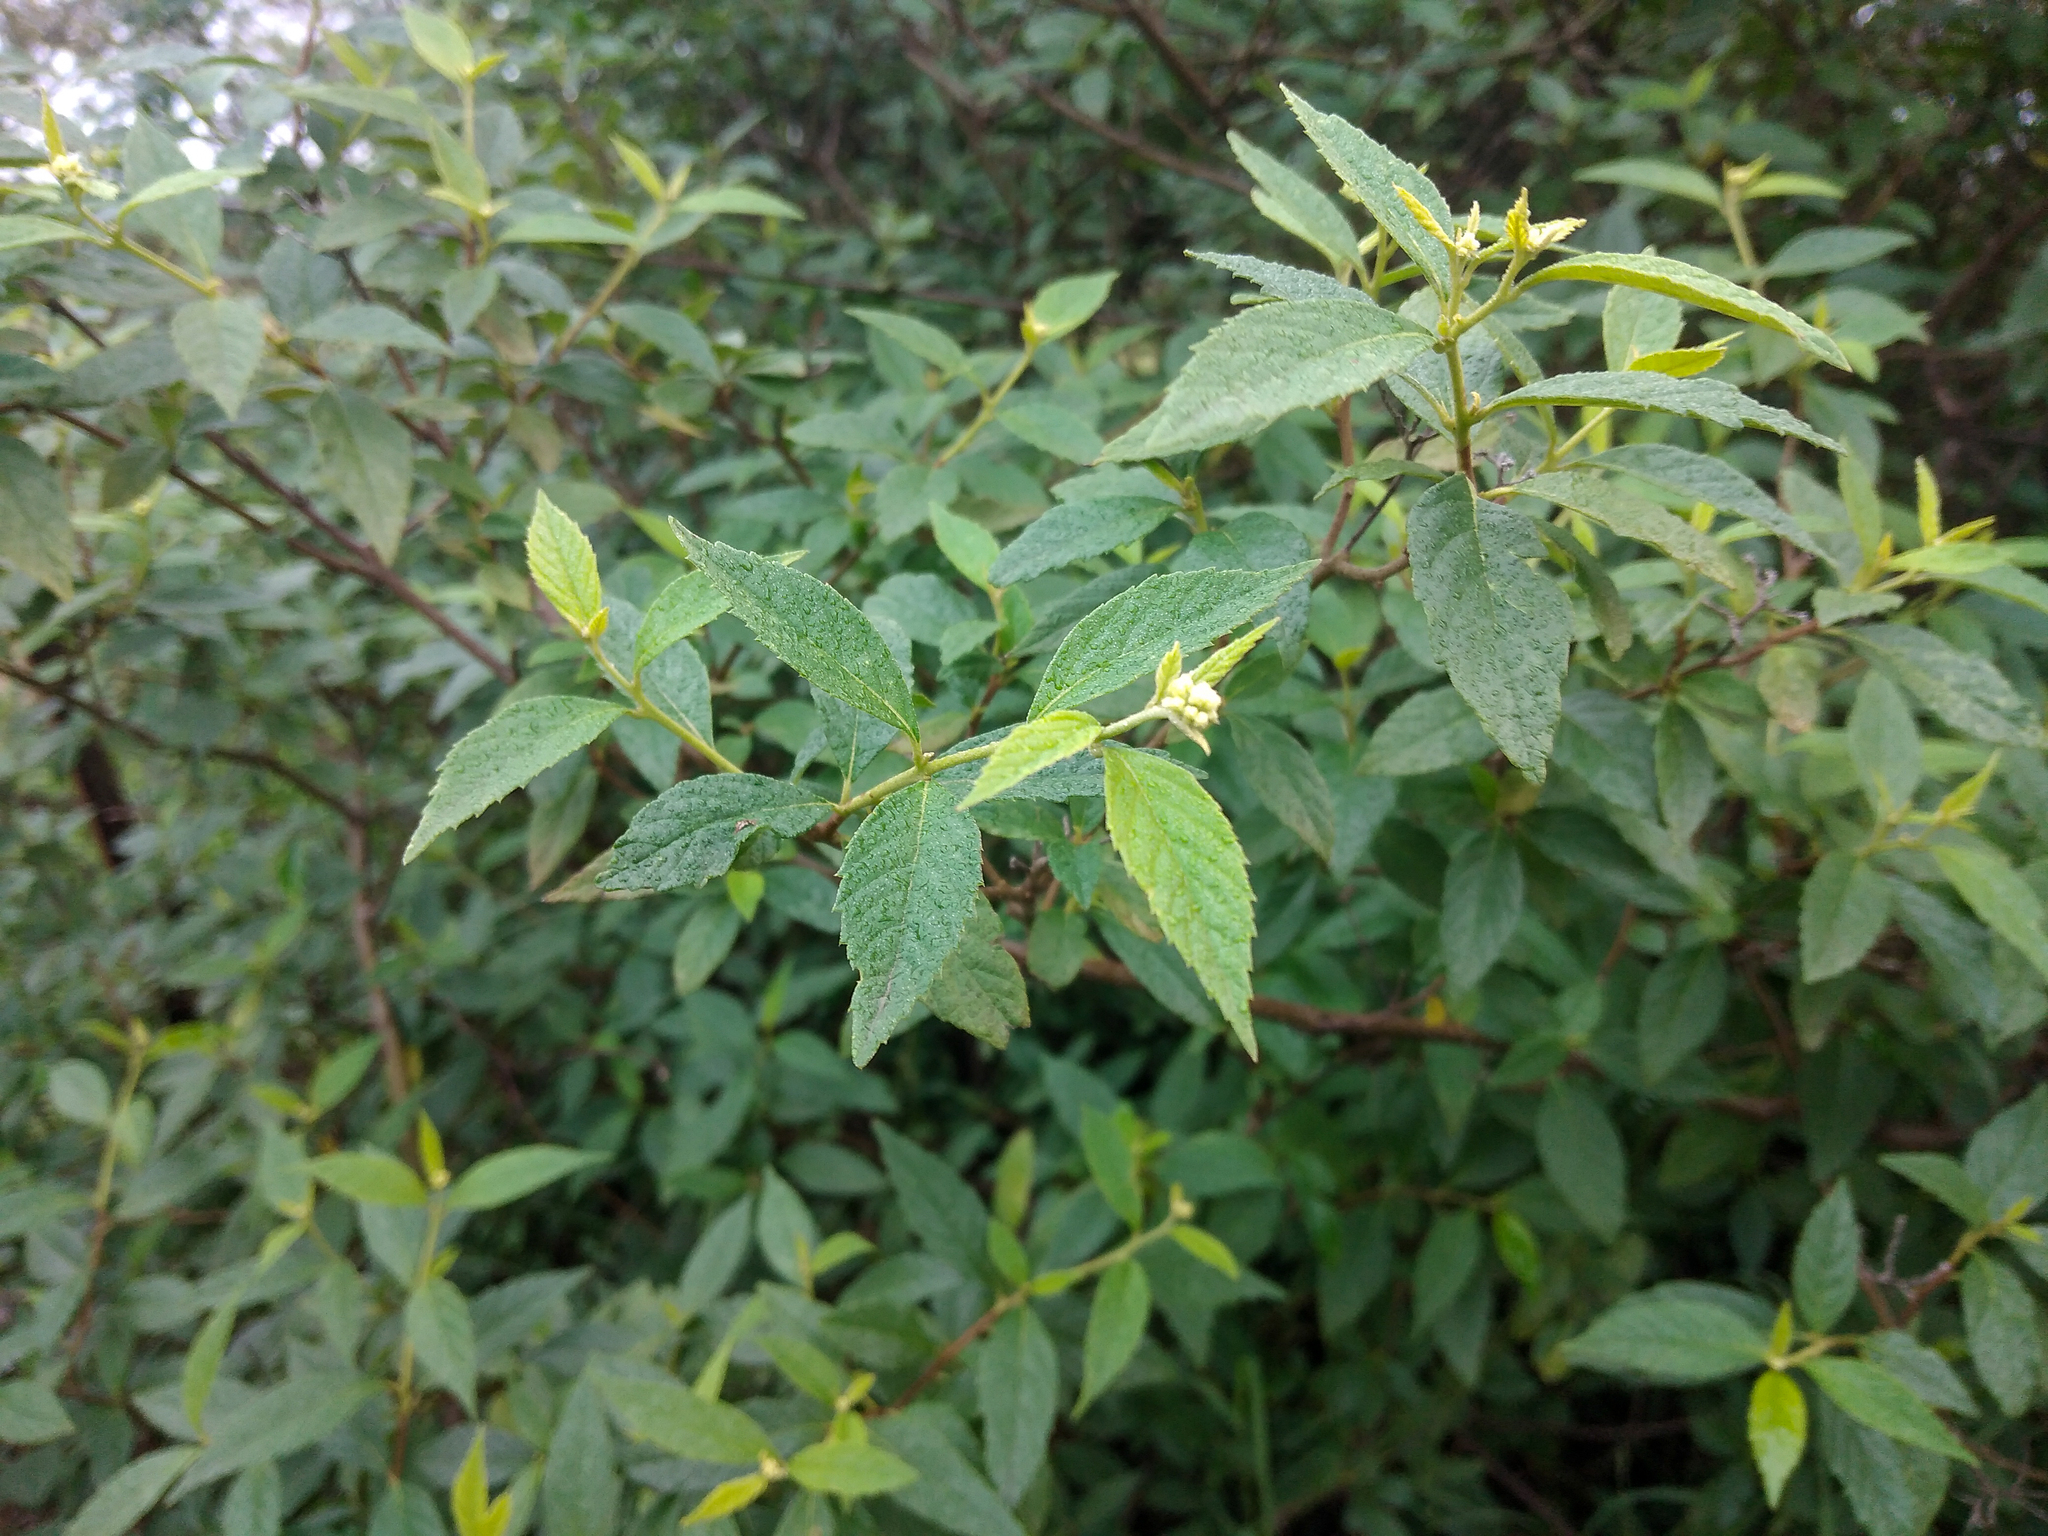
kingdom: Plantae
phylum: Tracheophyta
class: Magnoliopsida
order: Boraginales
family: Cordiaceae
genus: Varronia
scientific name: Varronia dichotoma
